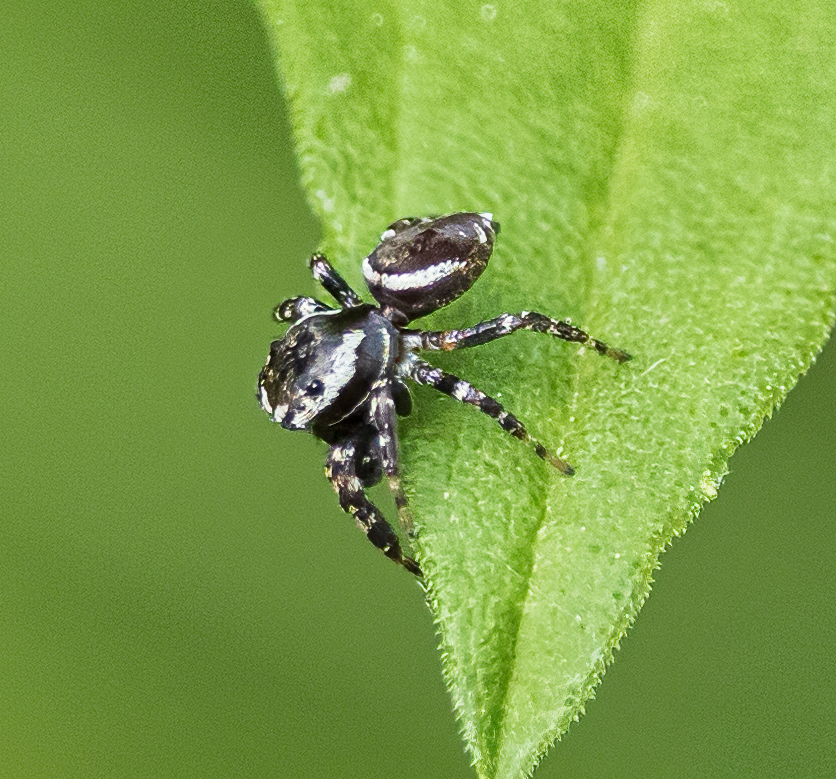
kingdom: Animalia
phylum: Arthropoda
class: Arachnida
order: Araneae
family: Salticidae
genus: Pelegrina
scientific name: Pelegrina galathea
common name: Jumping spiders
